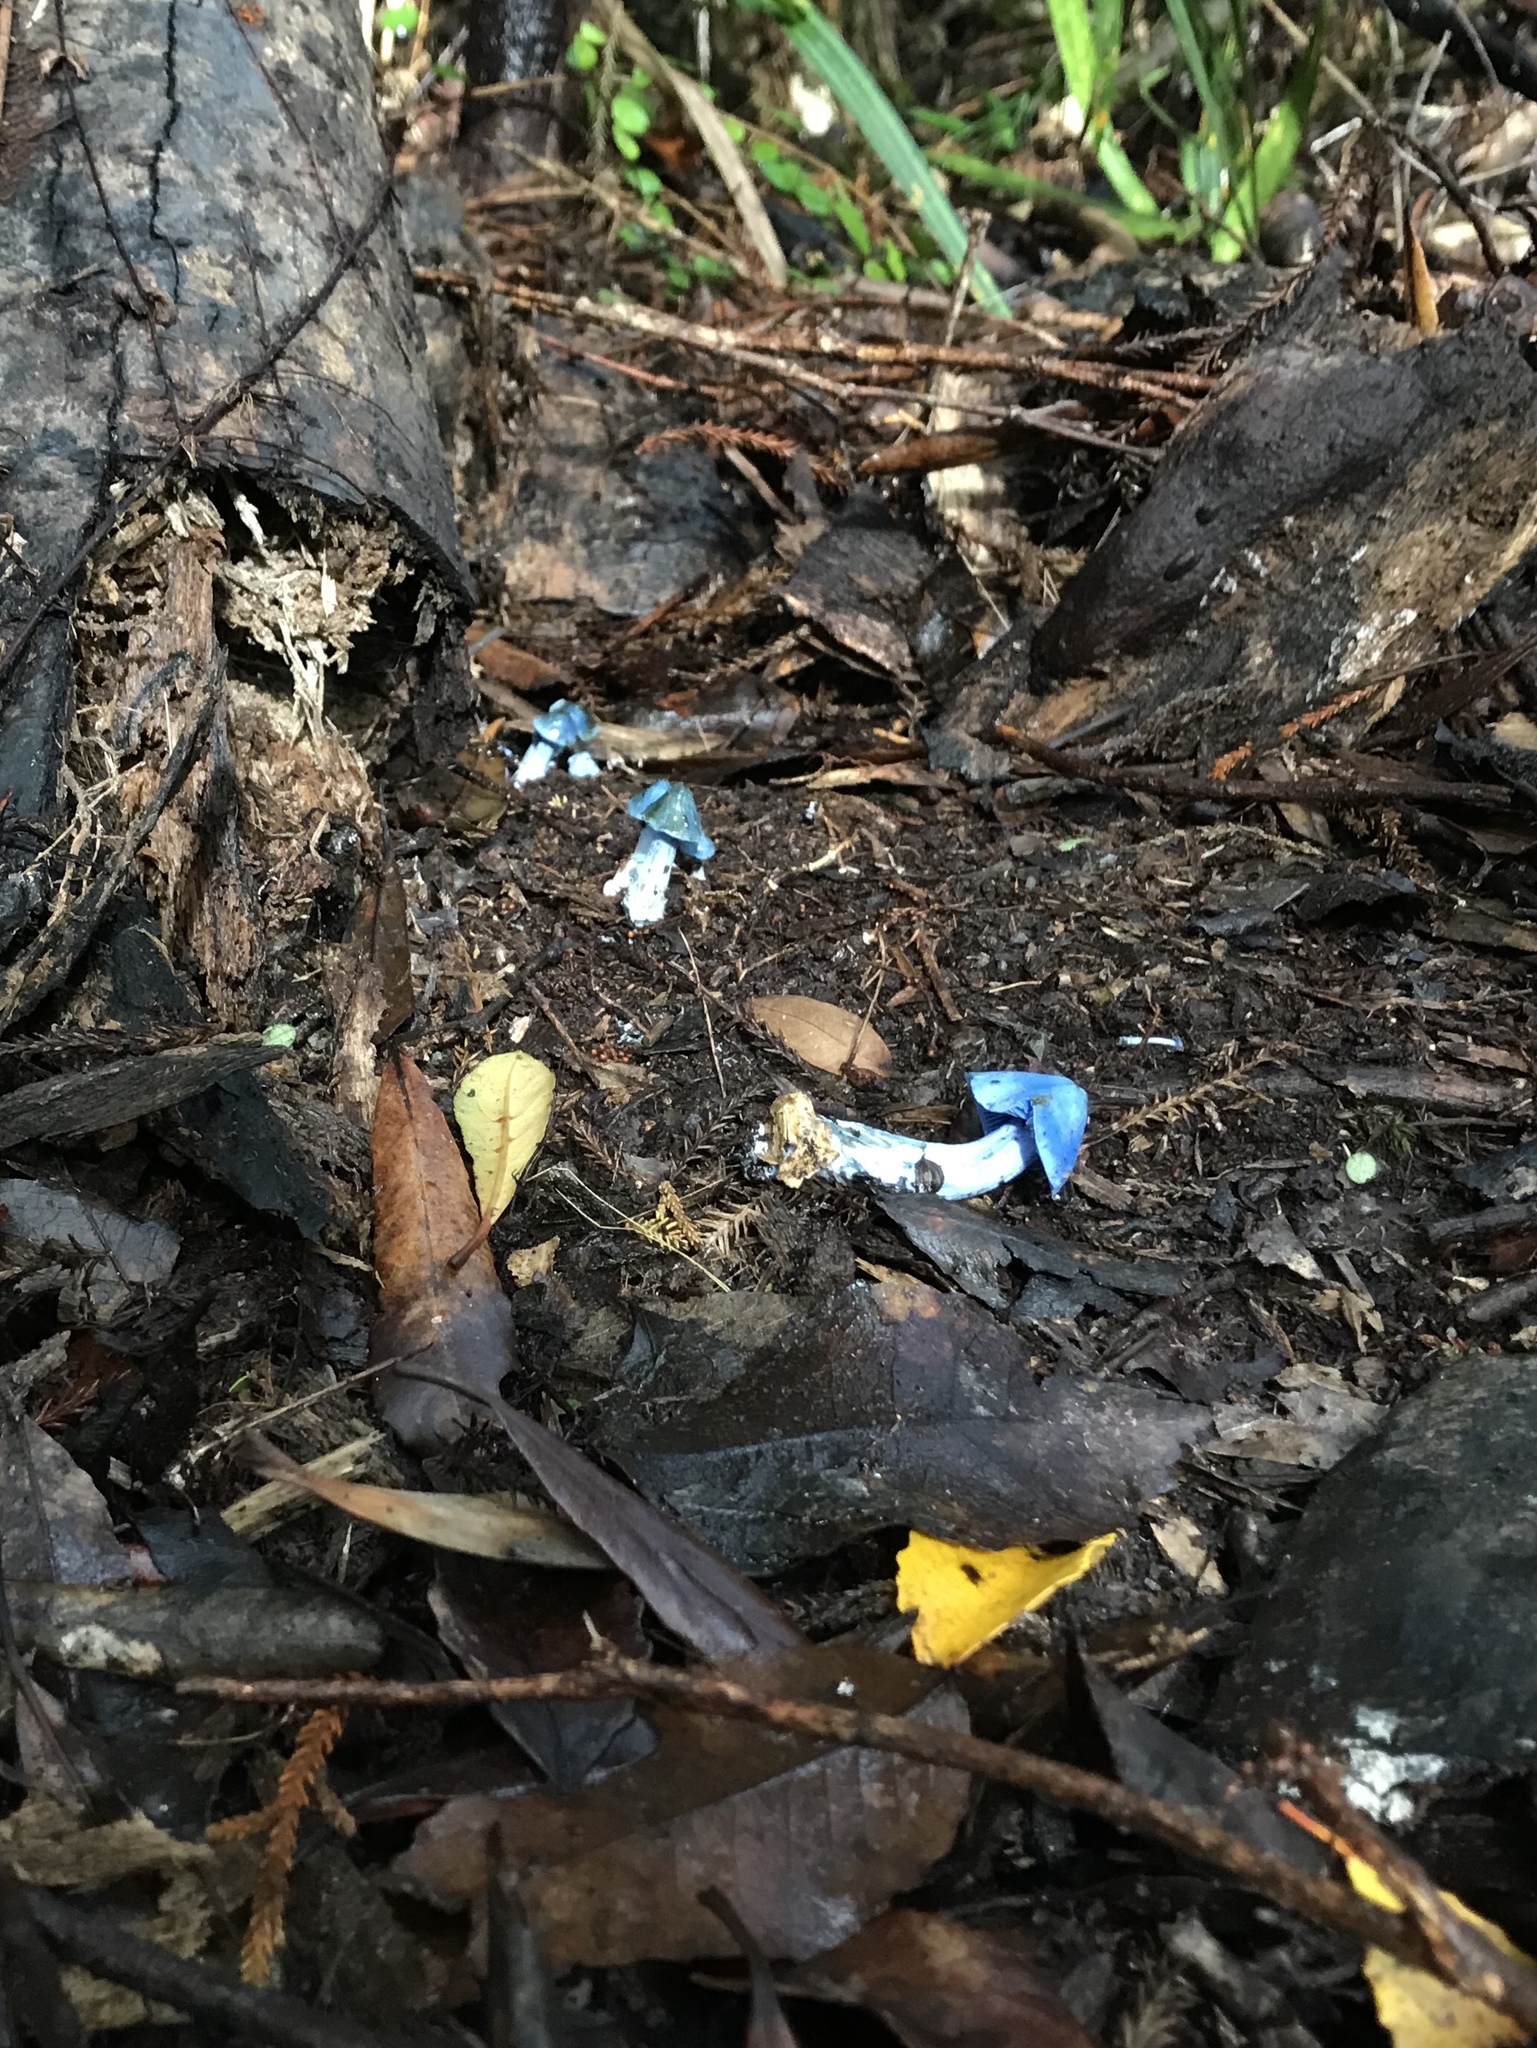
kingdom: Fungi
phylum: Basidiomycota
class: Agaricomycetes
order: Agaricales
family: Entolomataceae
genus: Entoloma
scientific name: Entoloma hochstetteri
